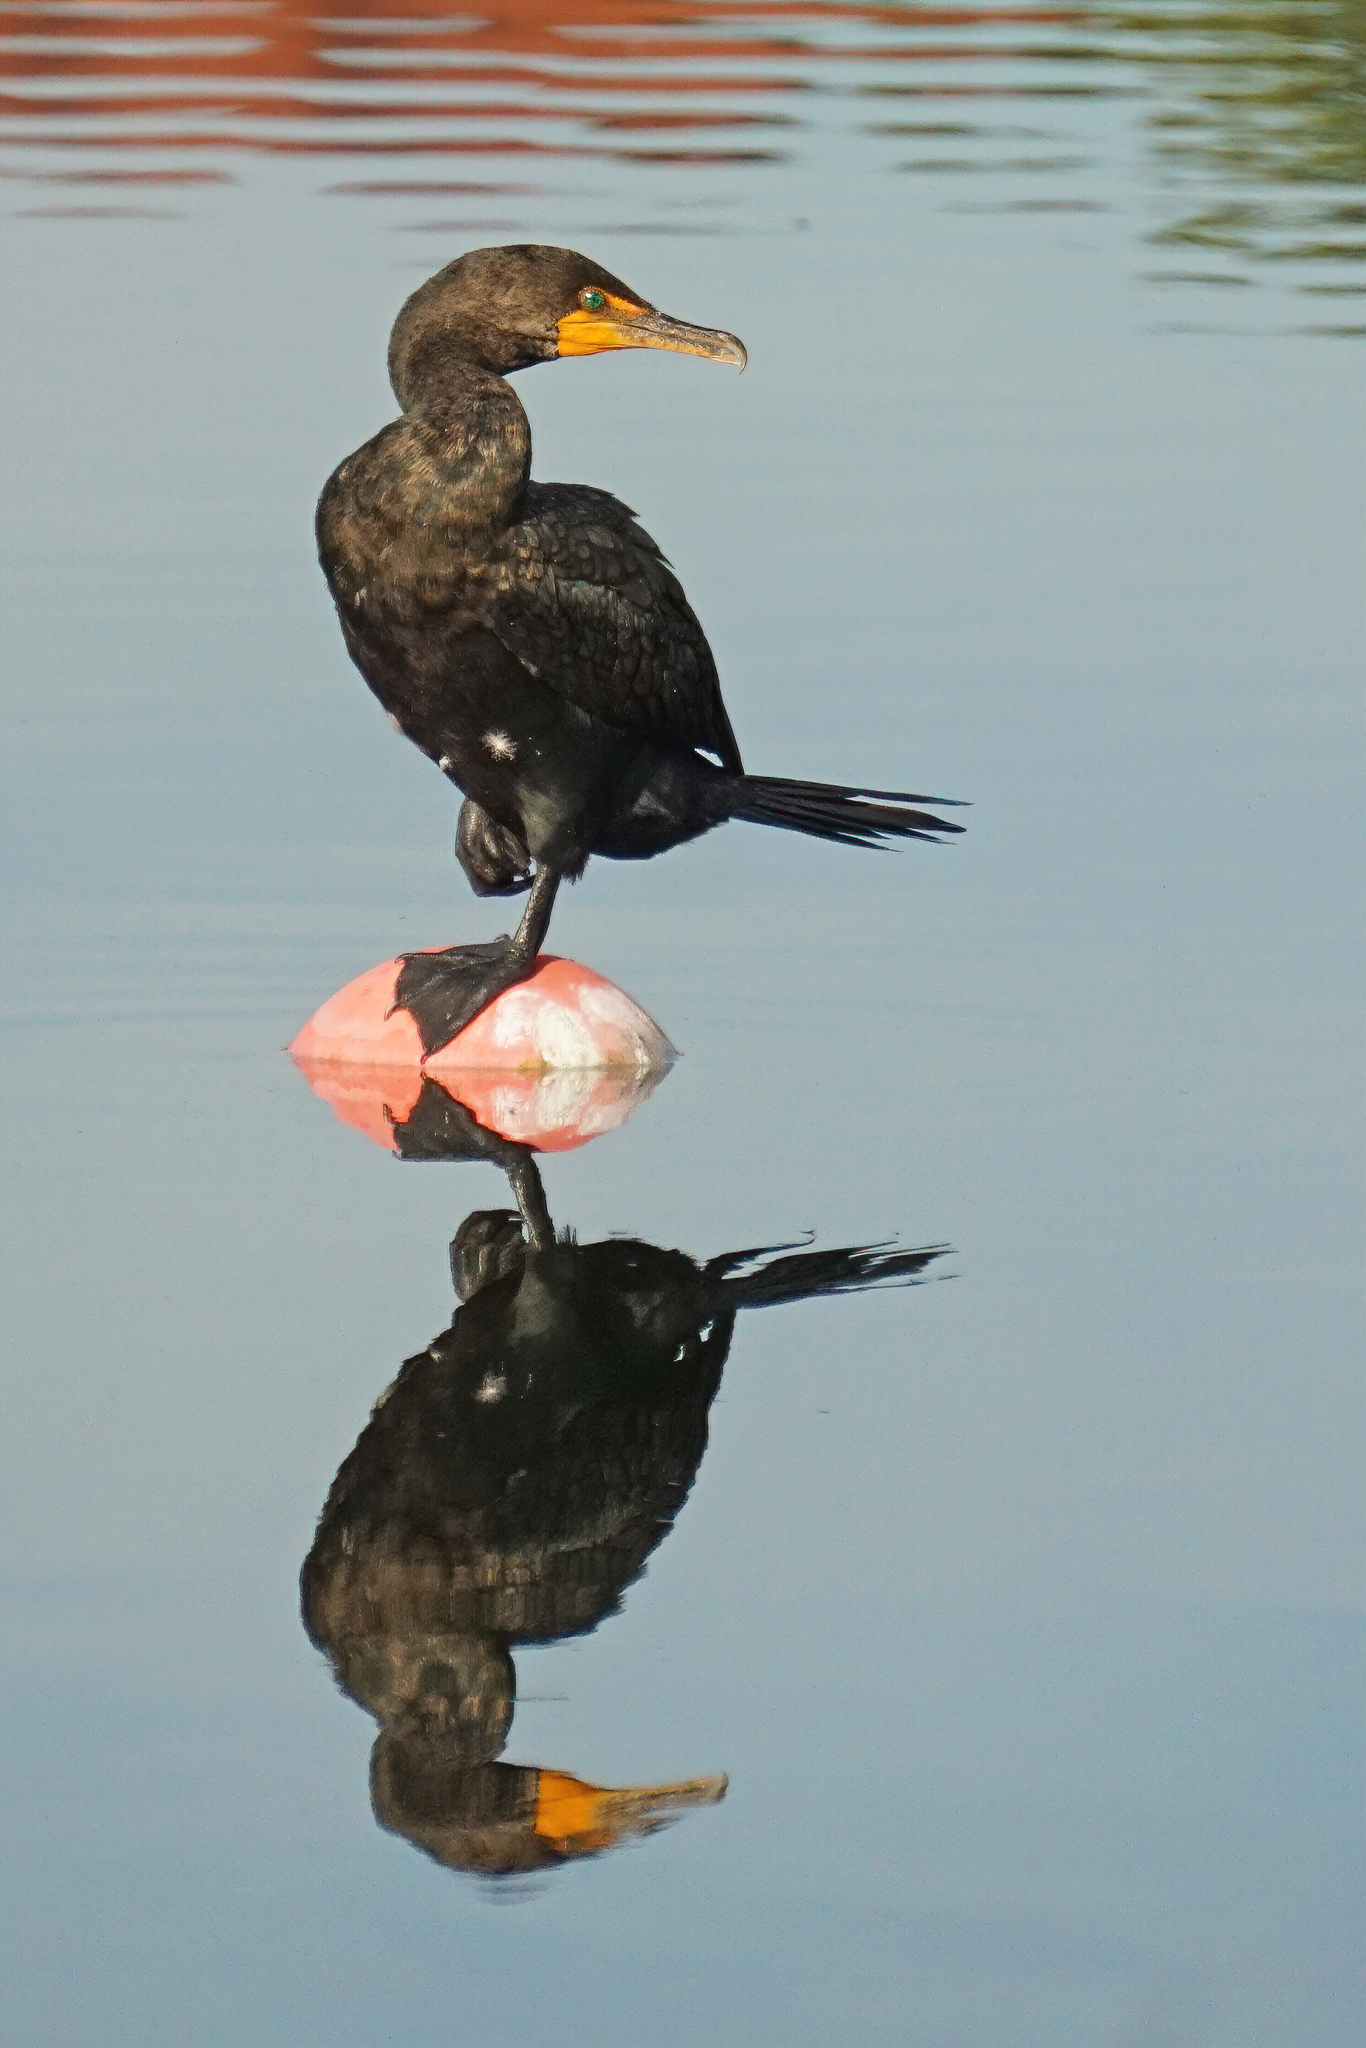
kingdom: Animalia
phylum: Chordata
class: Aves
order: Suliformes
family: Phalacrocoracidae
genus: Phalacrocorax
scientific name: Phalacrocorax auritus
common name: Double-crested cormorant
